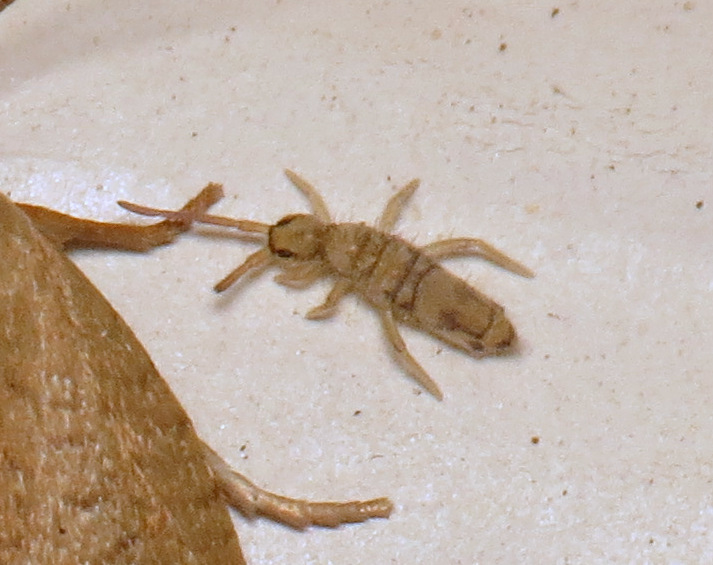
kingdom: Animalia
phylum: Arthropoda
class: Collembola
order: Entomobryomorpha
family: Entomobryidae
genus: Entomobrya
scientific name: Entomobrya nivalis
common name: Cosmopolitan springtail
